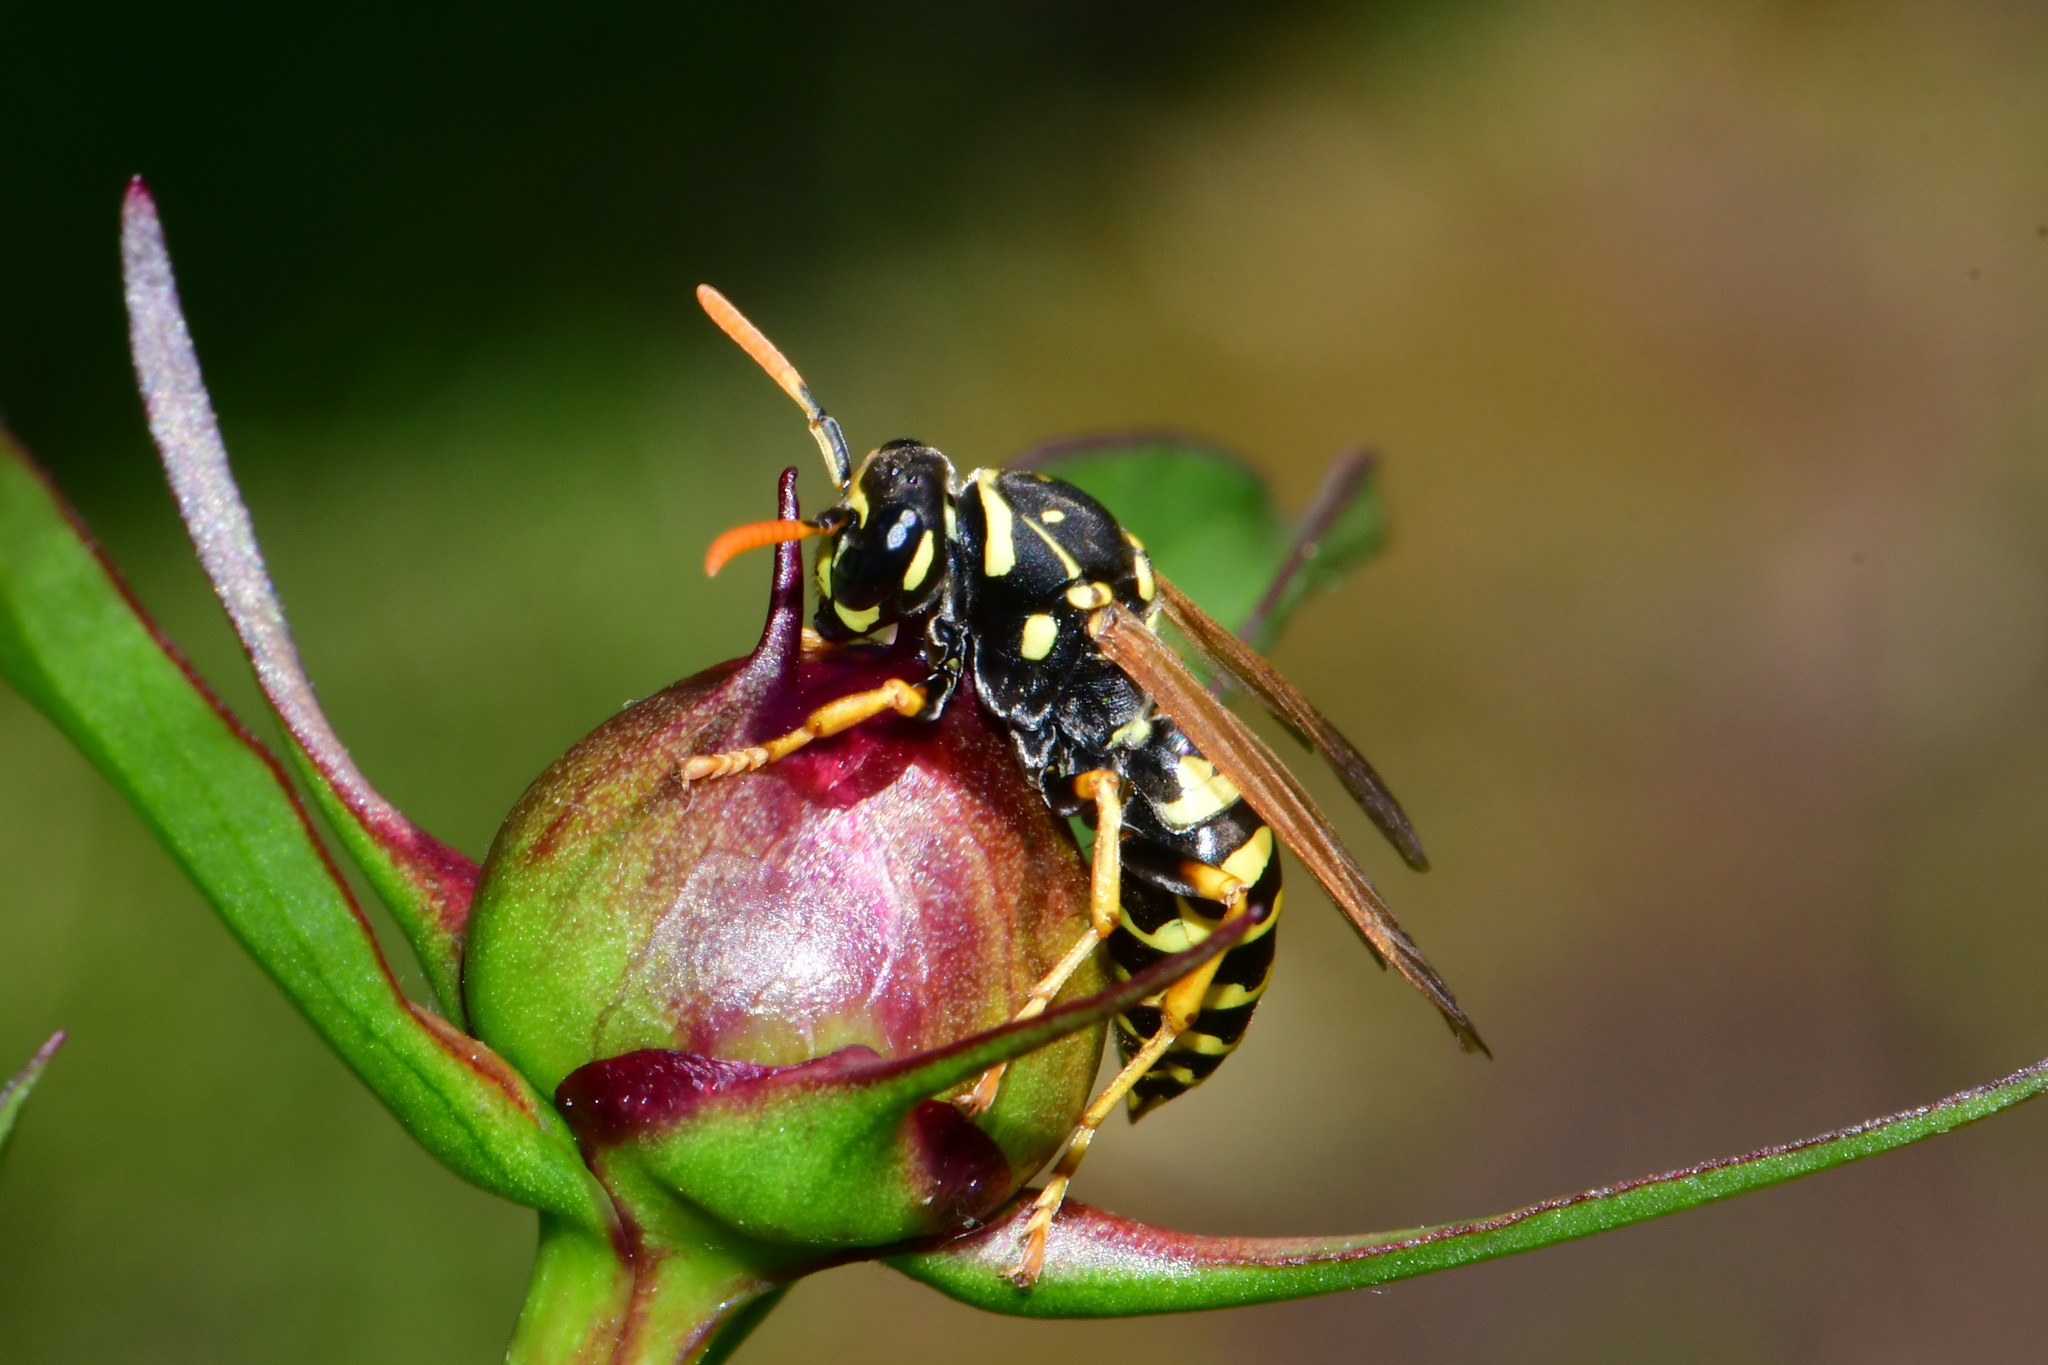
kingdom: Animalia
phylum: Arthropoda
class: Insecta
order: Hymenoptera
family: Eumenidae
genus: Polistes
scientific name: Polistes dominula
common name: Paper wasp
